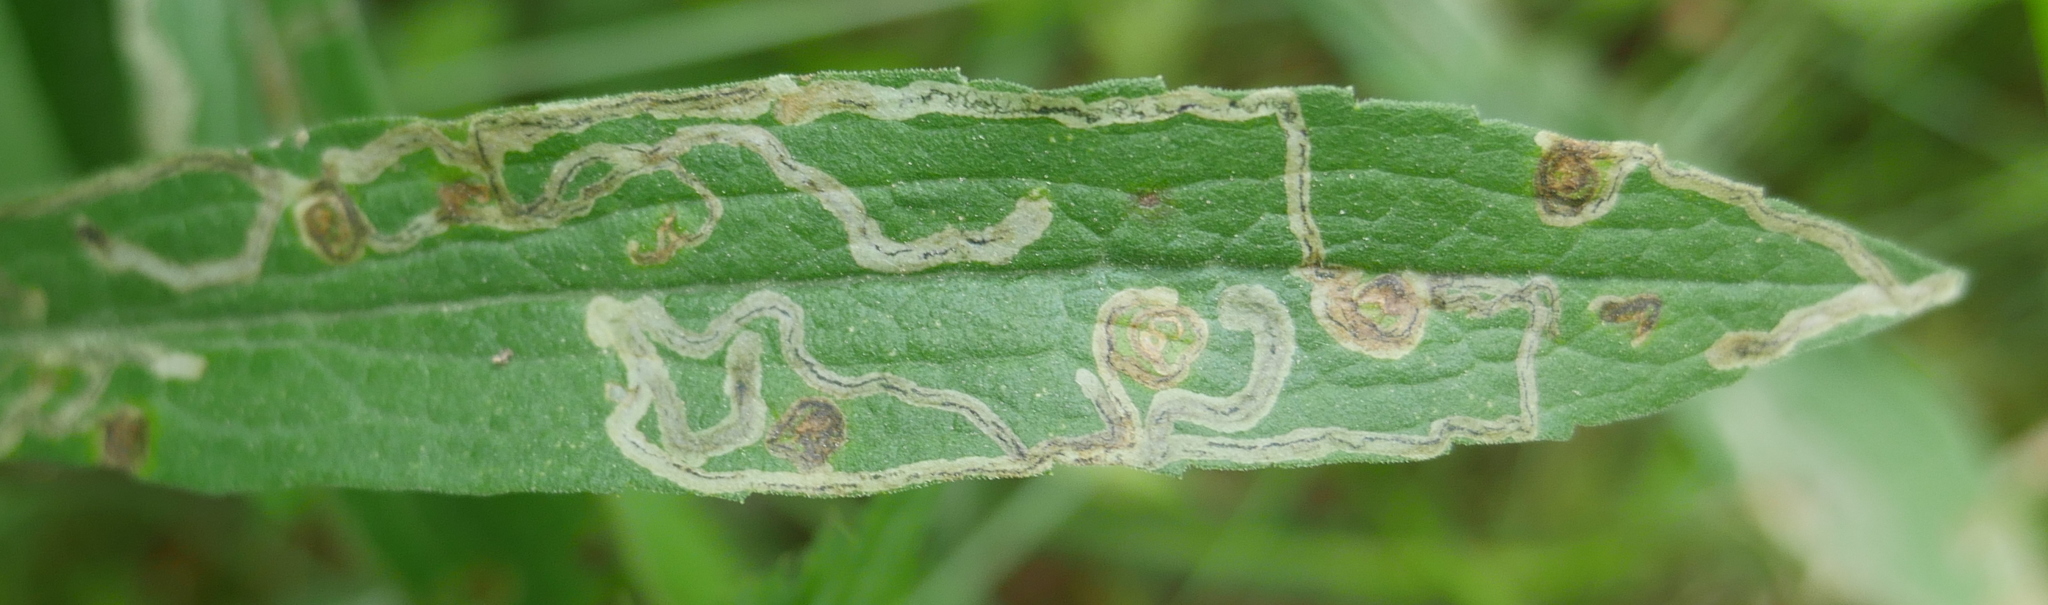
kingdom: Animalia
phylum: Arthropoda
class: Insecta
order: Diptera
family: Agromyzidae
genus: Liriomyza
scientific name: Liriomyza eupatorii
